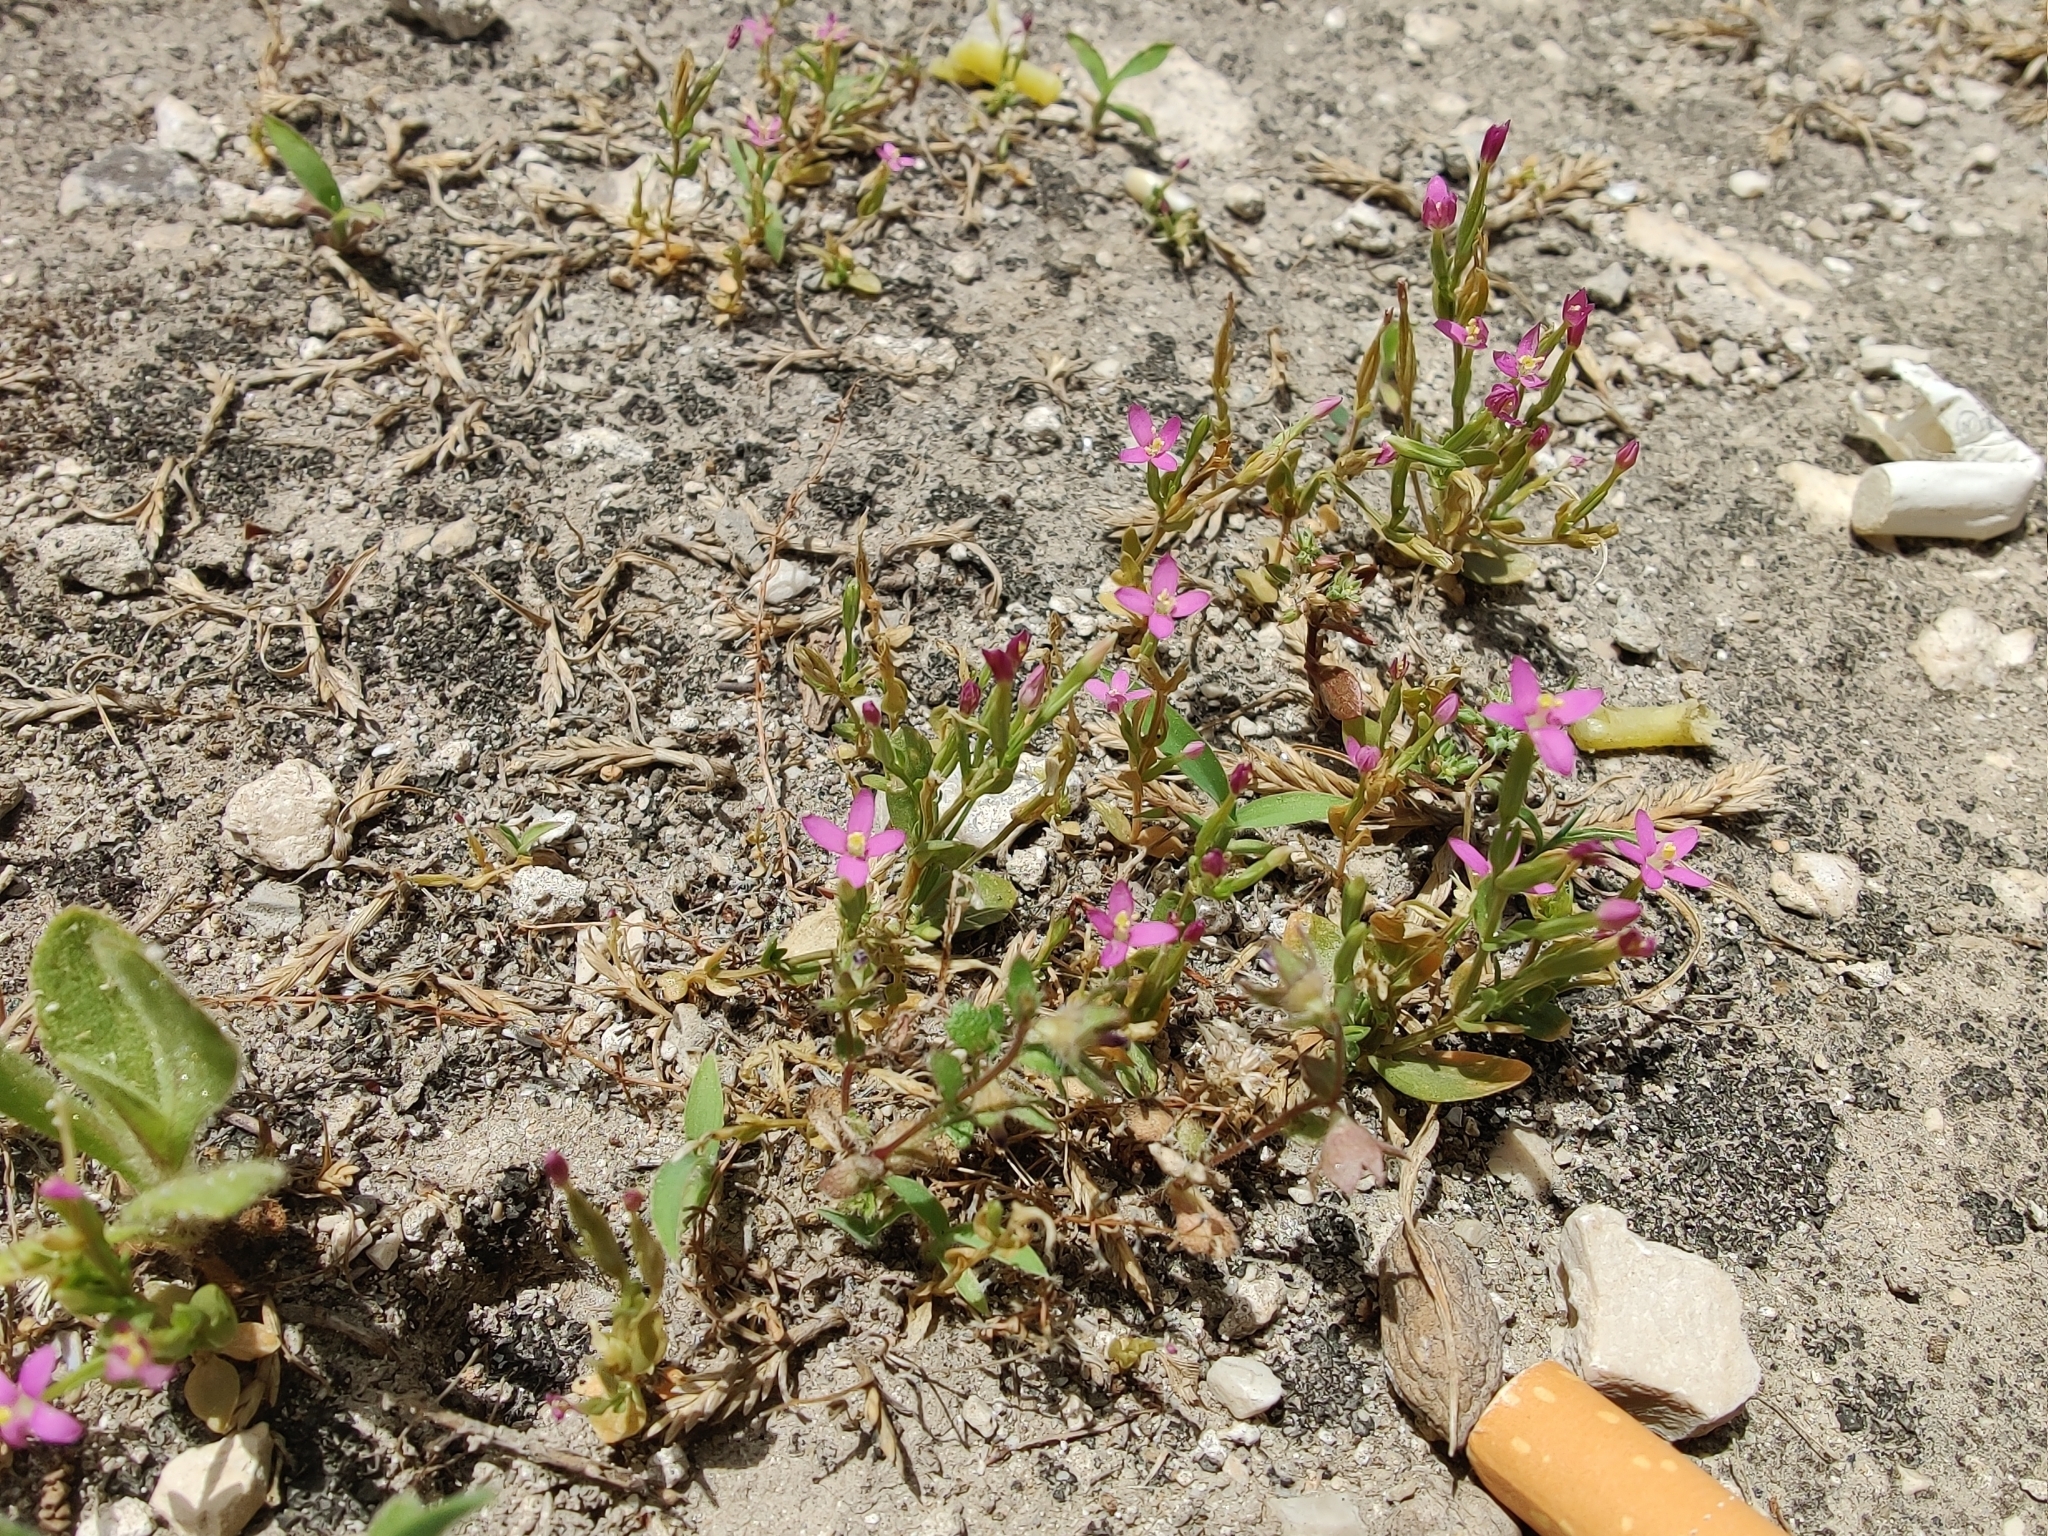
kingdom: Plantae
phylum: Tracheophyta
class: Magnoliopsida
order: Gentianales
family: Gentianaceae
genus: Centaurium
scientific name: Centaurium pulchellum
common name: Lesser centaury
